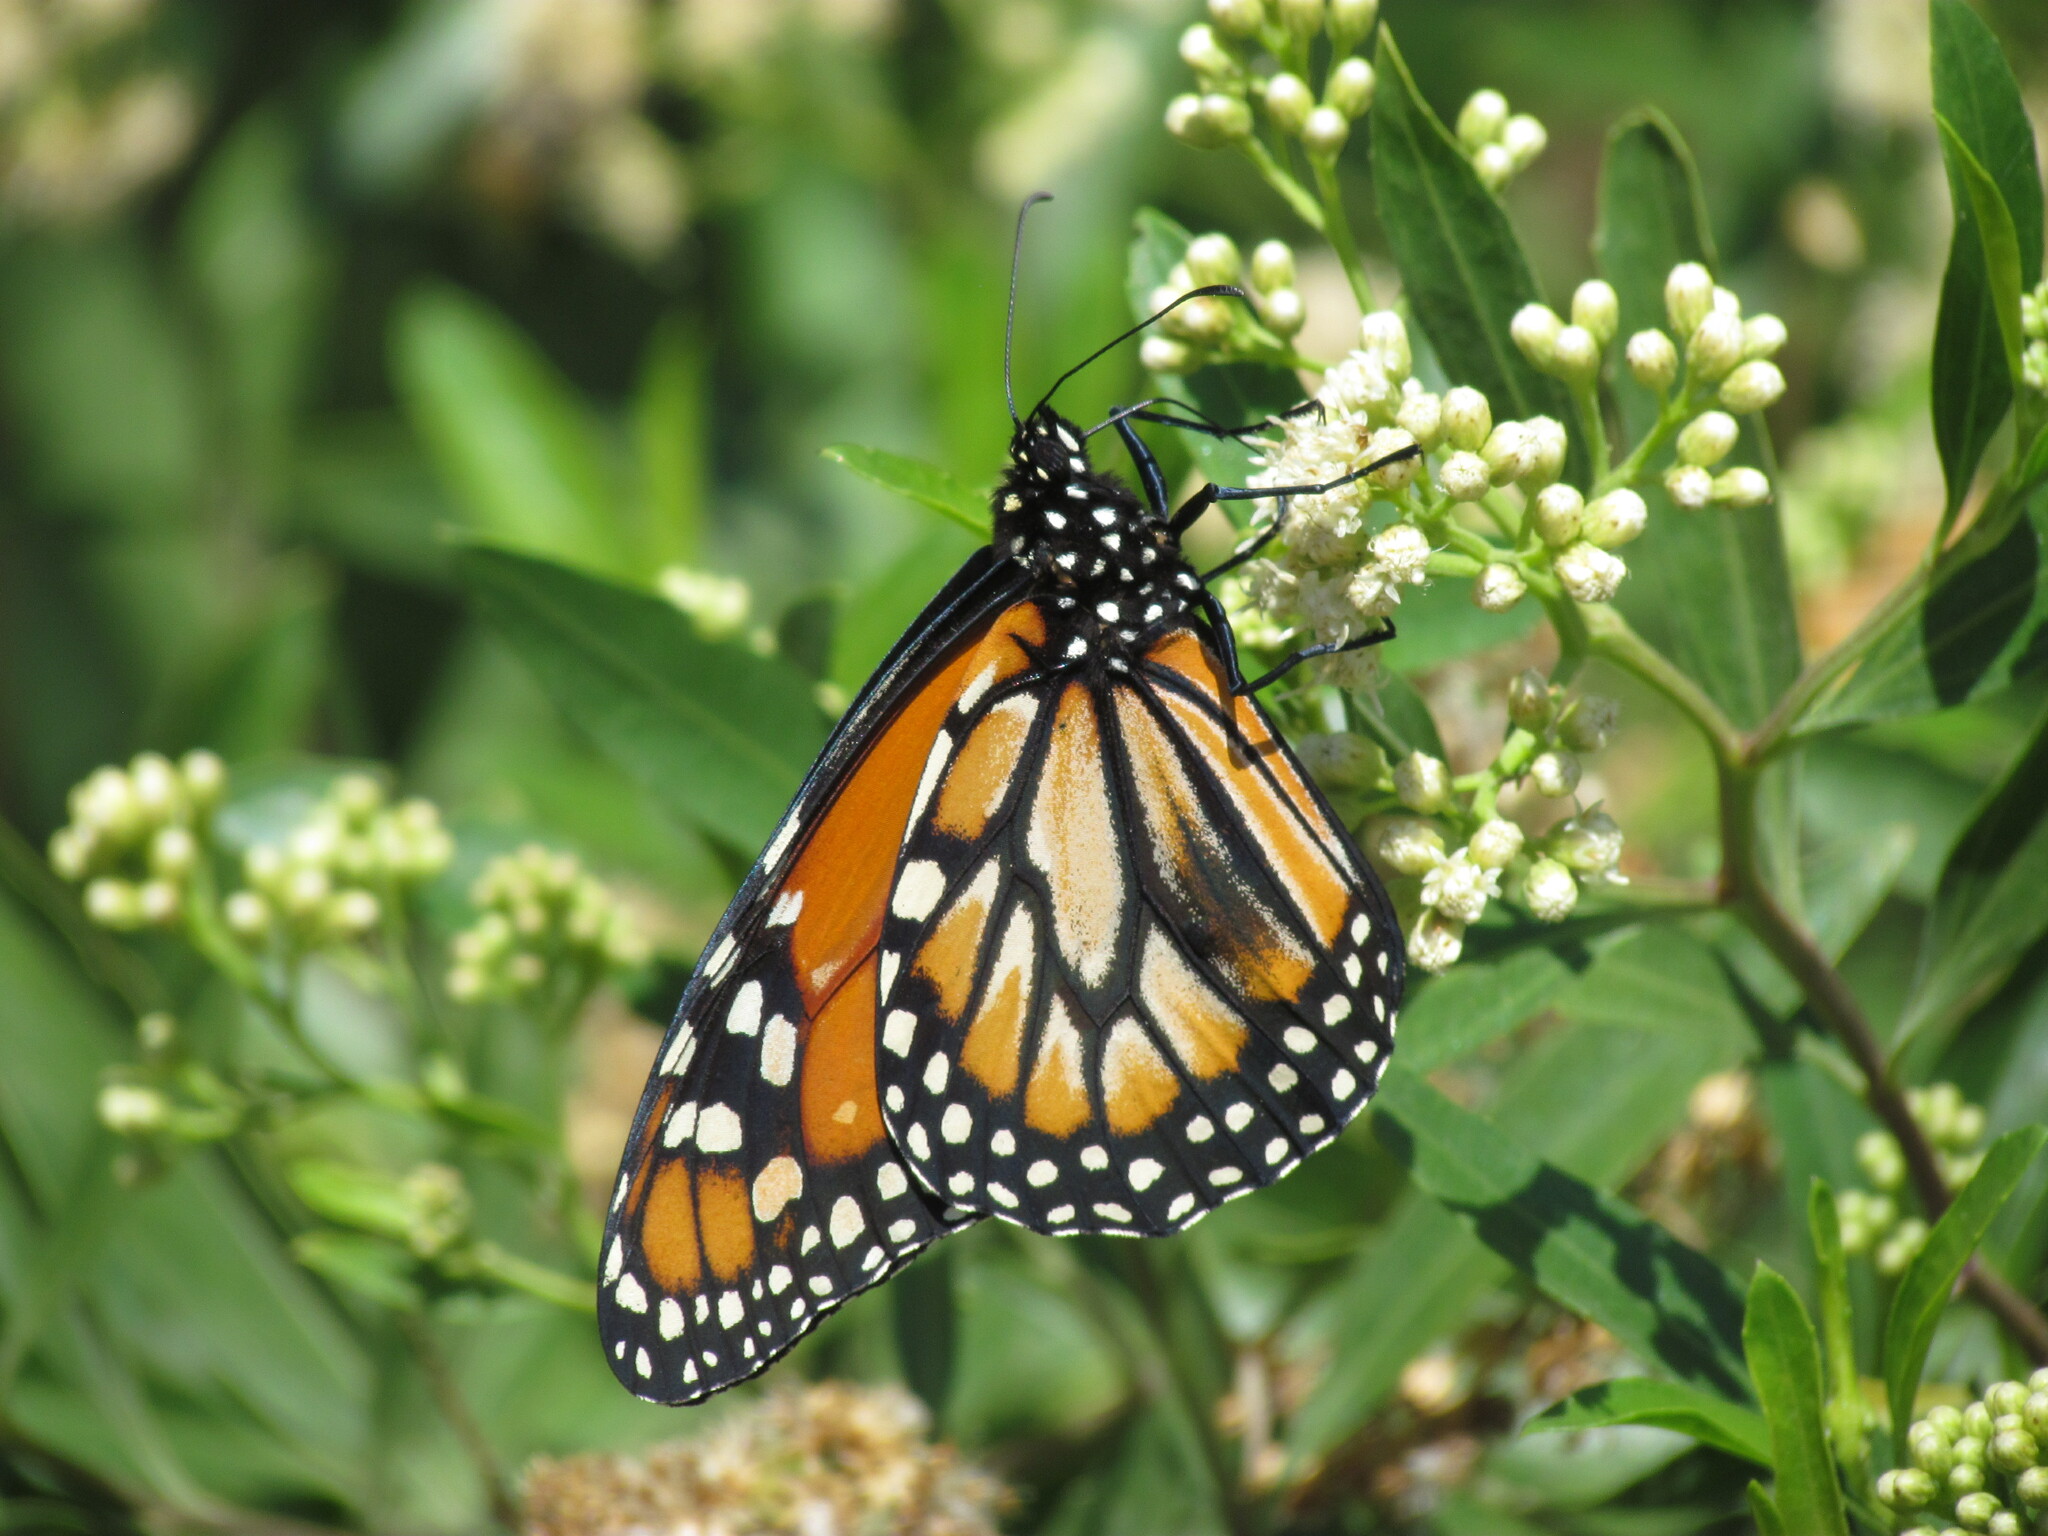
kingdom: Animalia
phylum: Arthropoda
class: Insecta
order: Lepidoptera
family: Nymphalidae
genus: Danaus
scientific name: Danaus erippus
